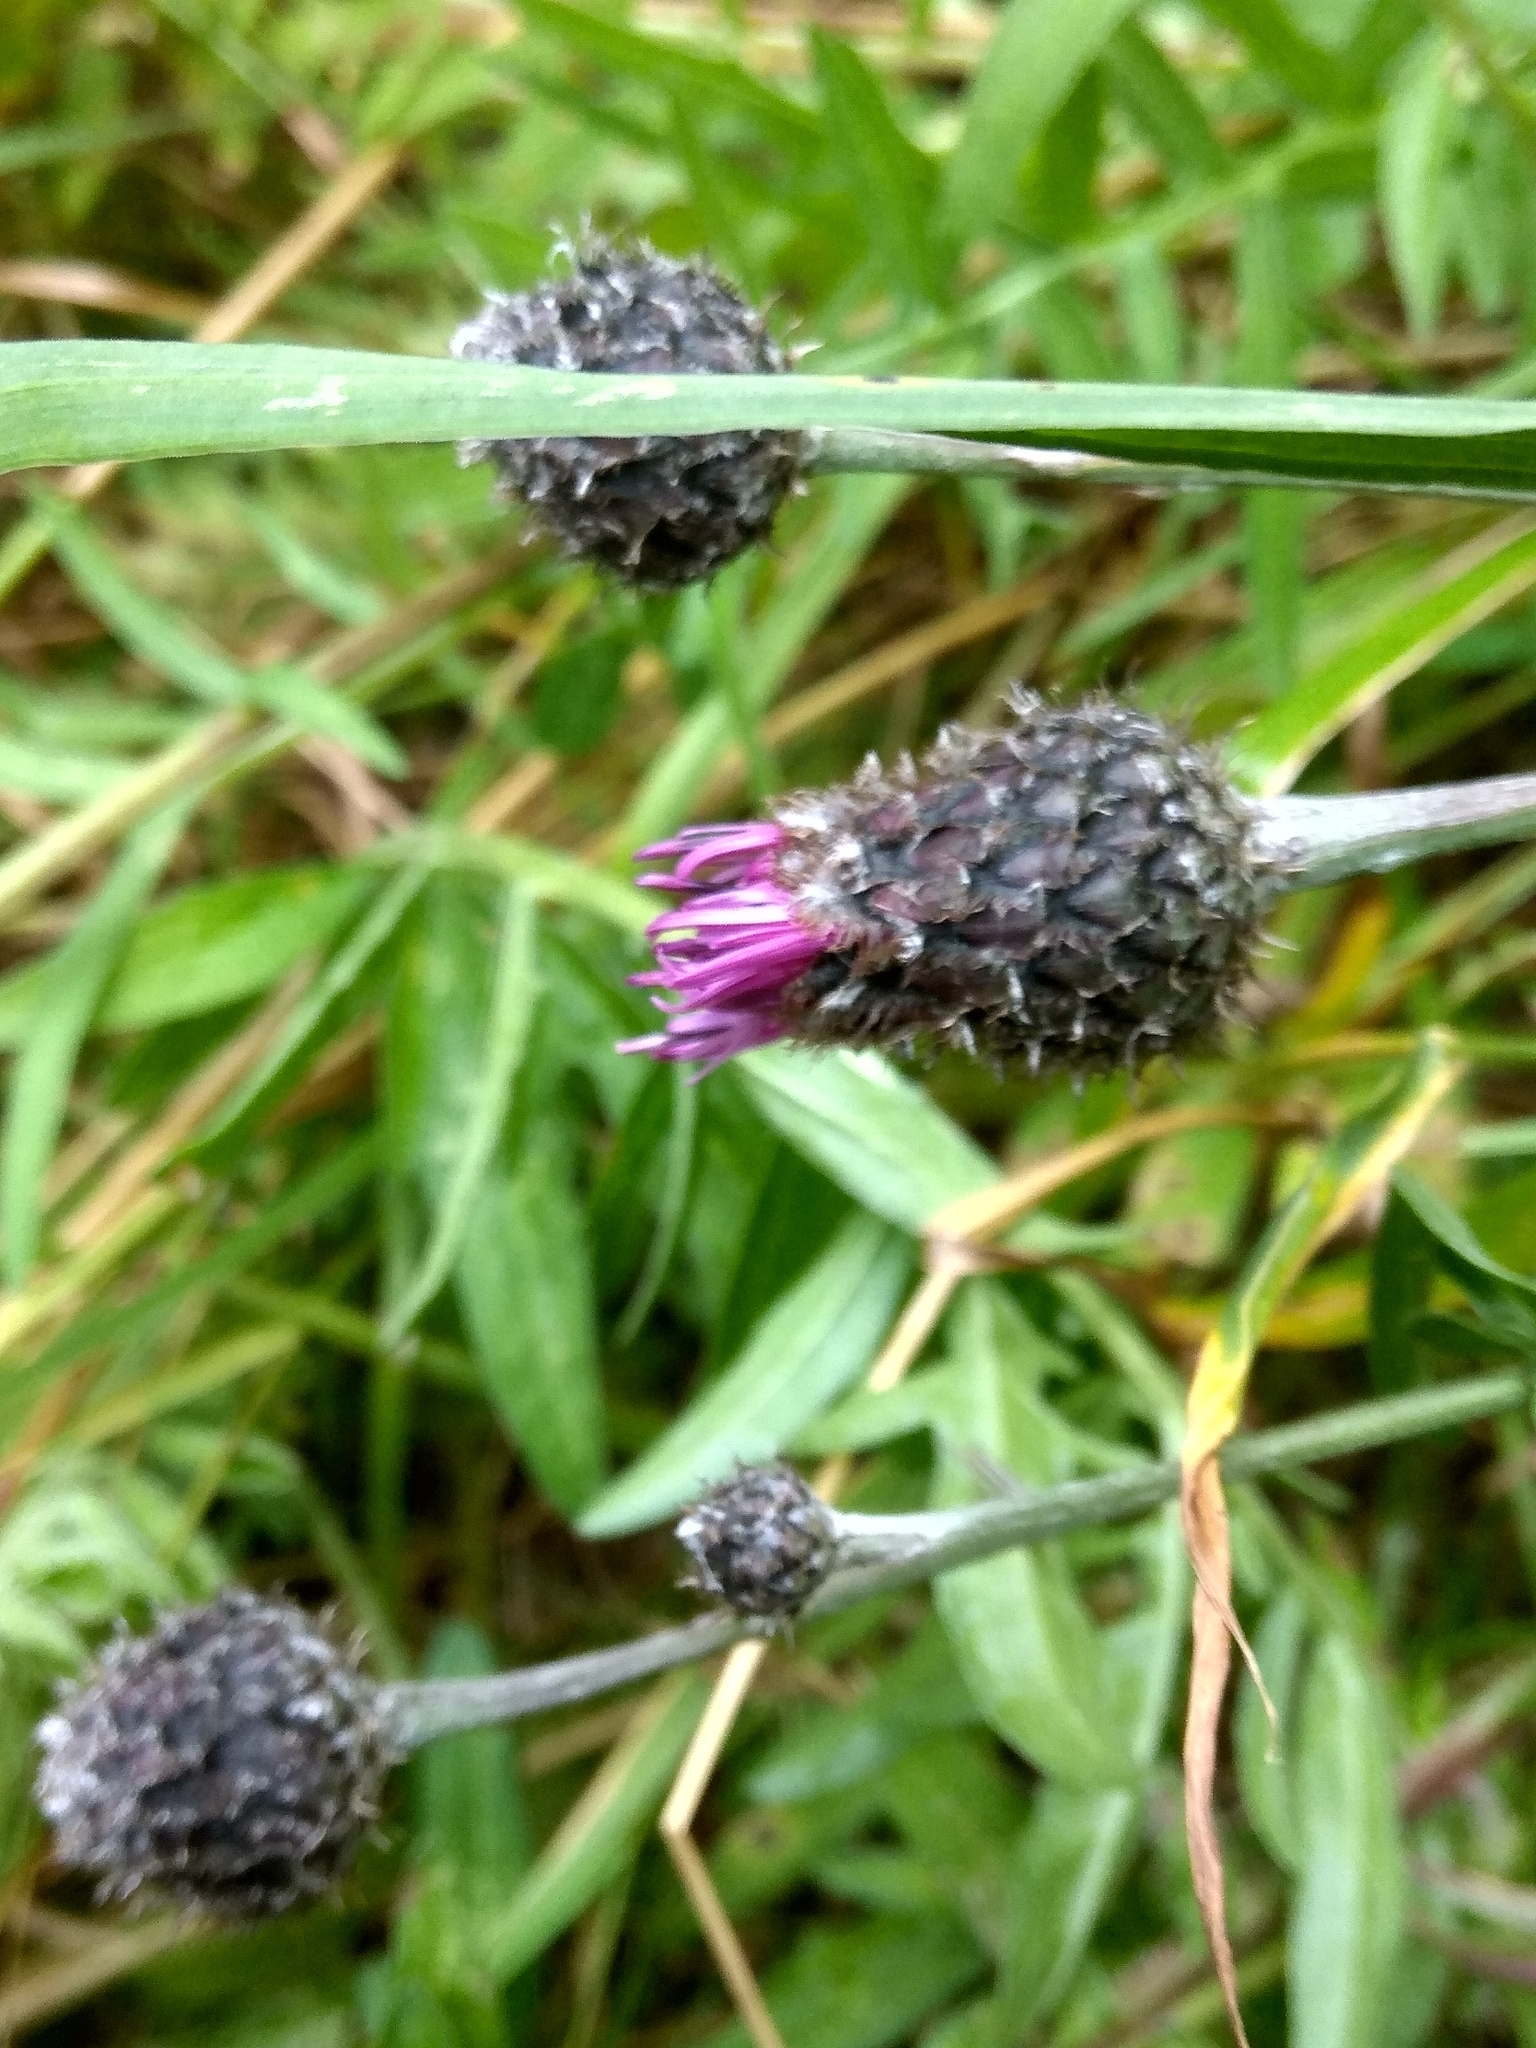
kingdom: Plantae
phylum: Tracheophyta
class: Magnoliopsida
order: Asterales
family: Asteraceae
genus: Centaurea
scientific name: Centaurea scabiosa
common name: Greater knapweed
